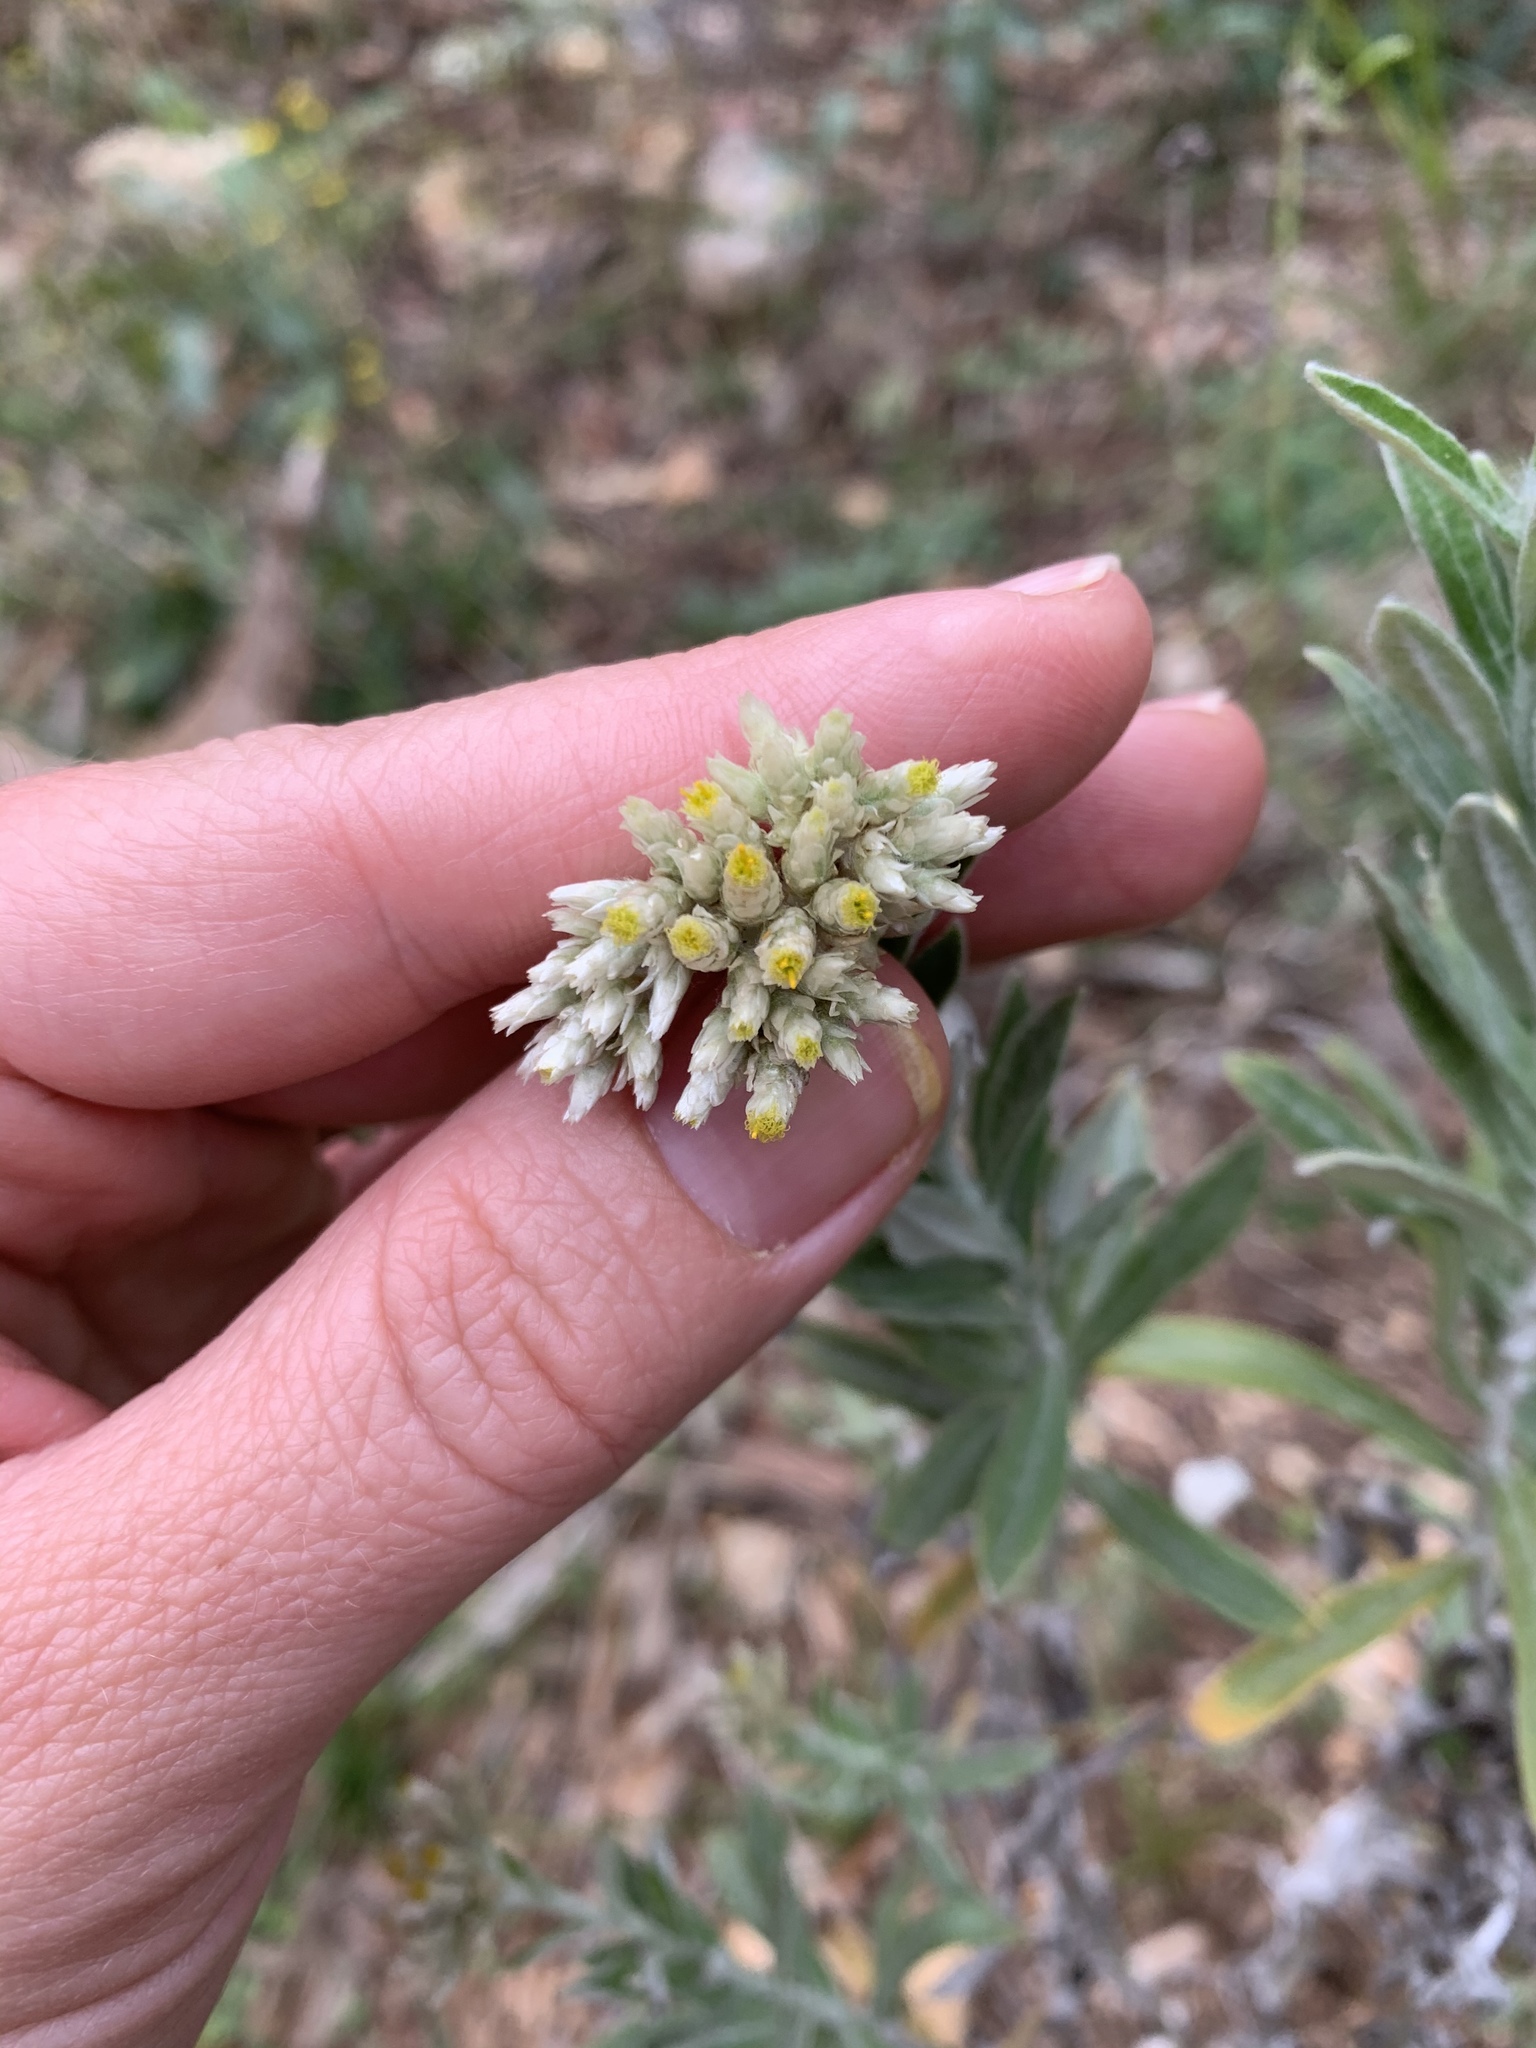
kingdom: Plantae
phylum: Tracheophyta
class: Magnoliopsida
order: Asterales
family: Asteraceae
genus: Pseudognaphalium
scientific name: Pseudognaphalium obtusifolium
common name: Eastern rabbit-tobacco
